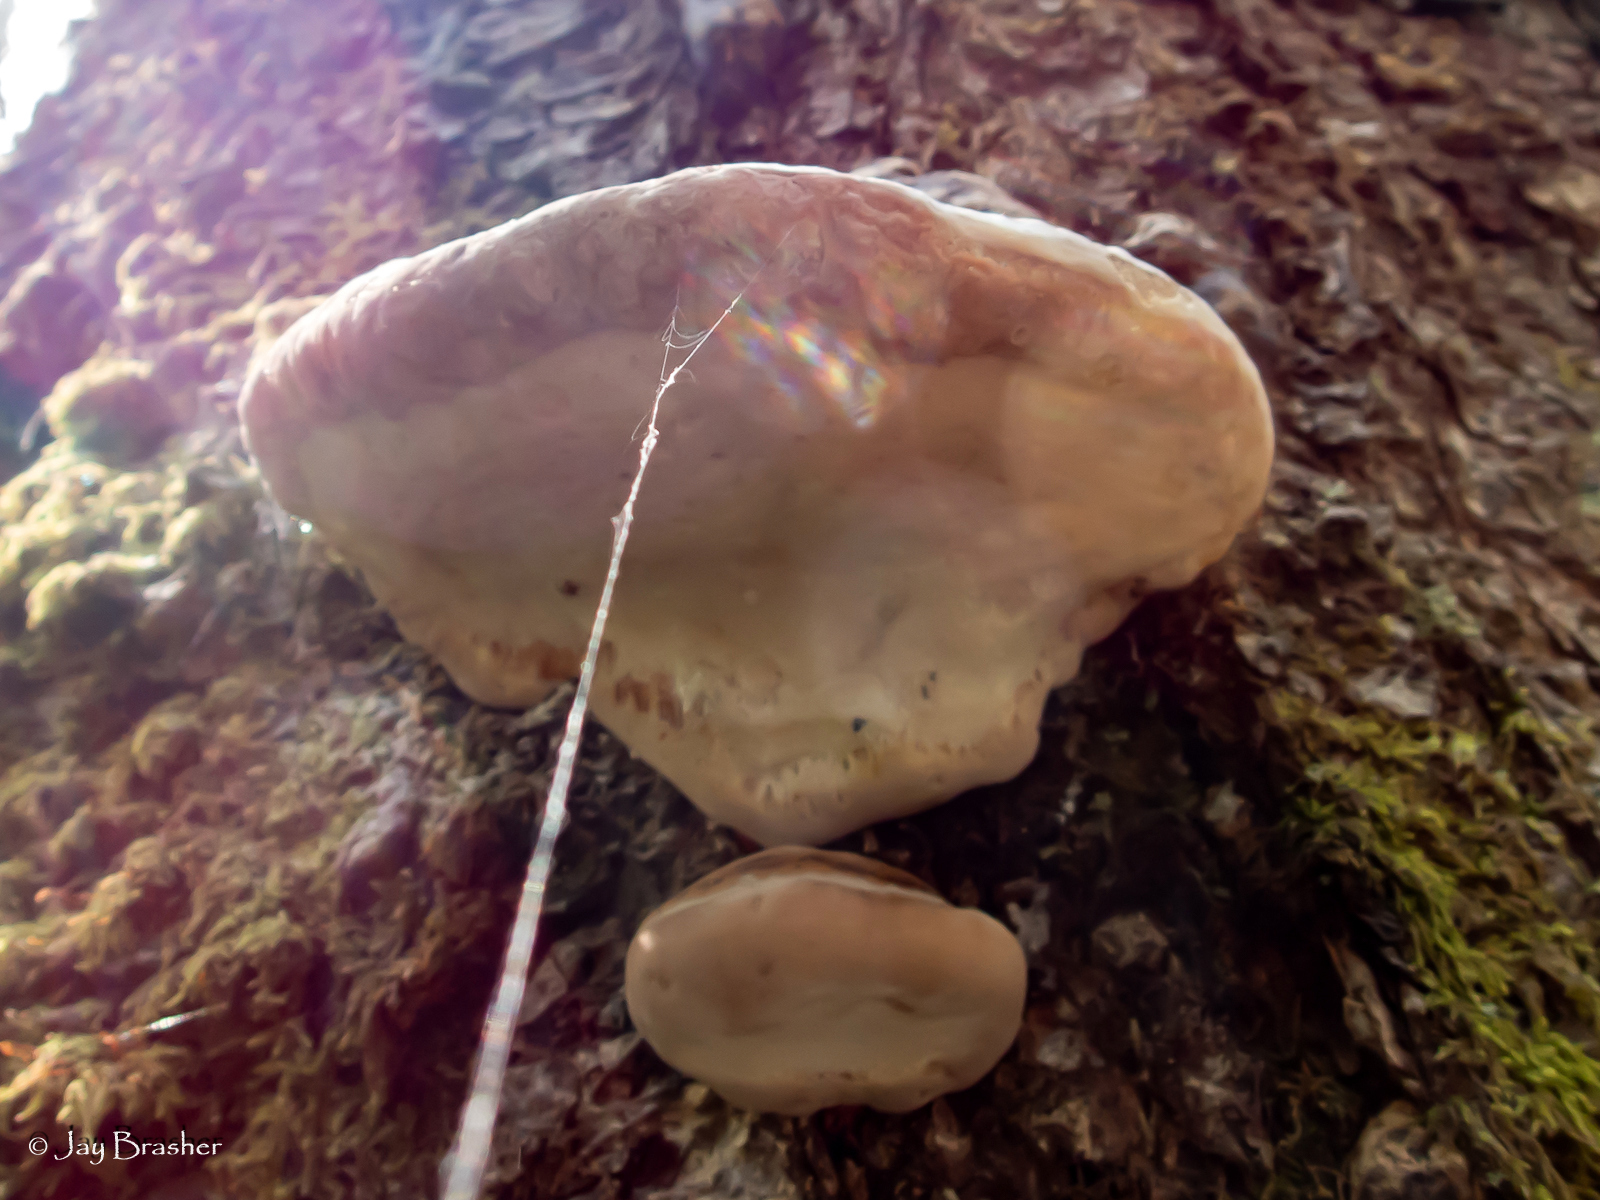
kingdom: Fungi
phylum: Basidiomycota
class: Agaricomycetes
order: Polyporales
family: Fomitopsidaceae
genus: Fomitopsis
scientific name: Fomitopsis mounceae
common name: Northern red belt
